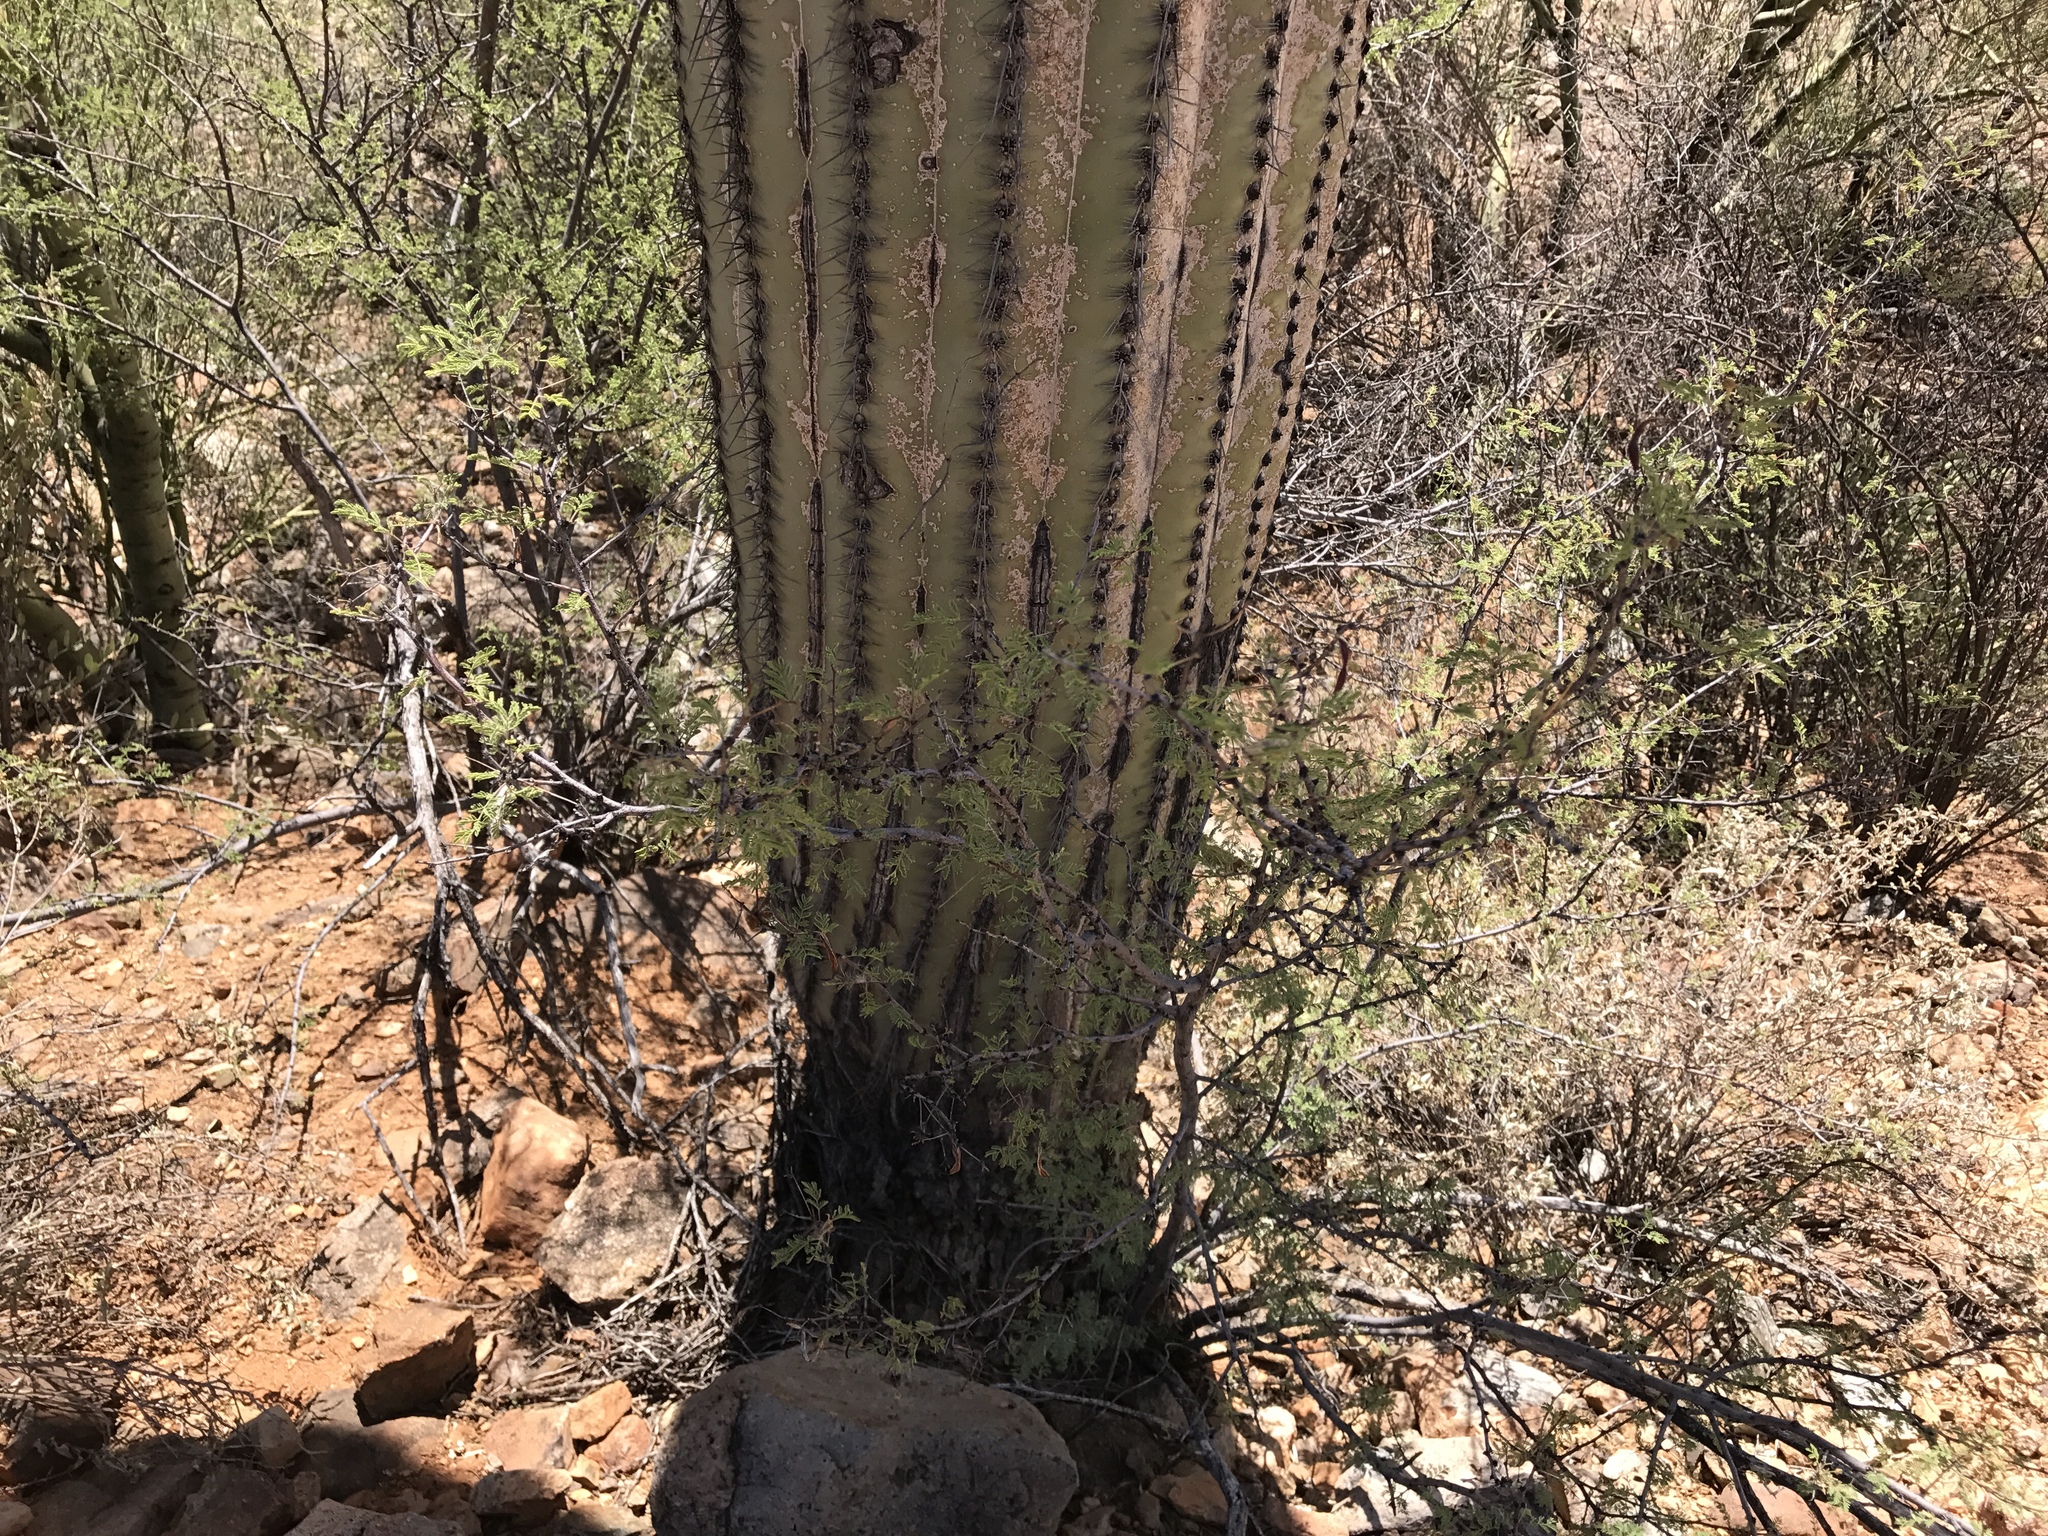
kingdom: Plantae
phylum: Tracheophyta
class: Magnoliopsida
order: Fabales
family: Fabaceae
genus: Vachellia
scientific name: Vachellia constricta
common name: Mescat acacia
